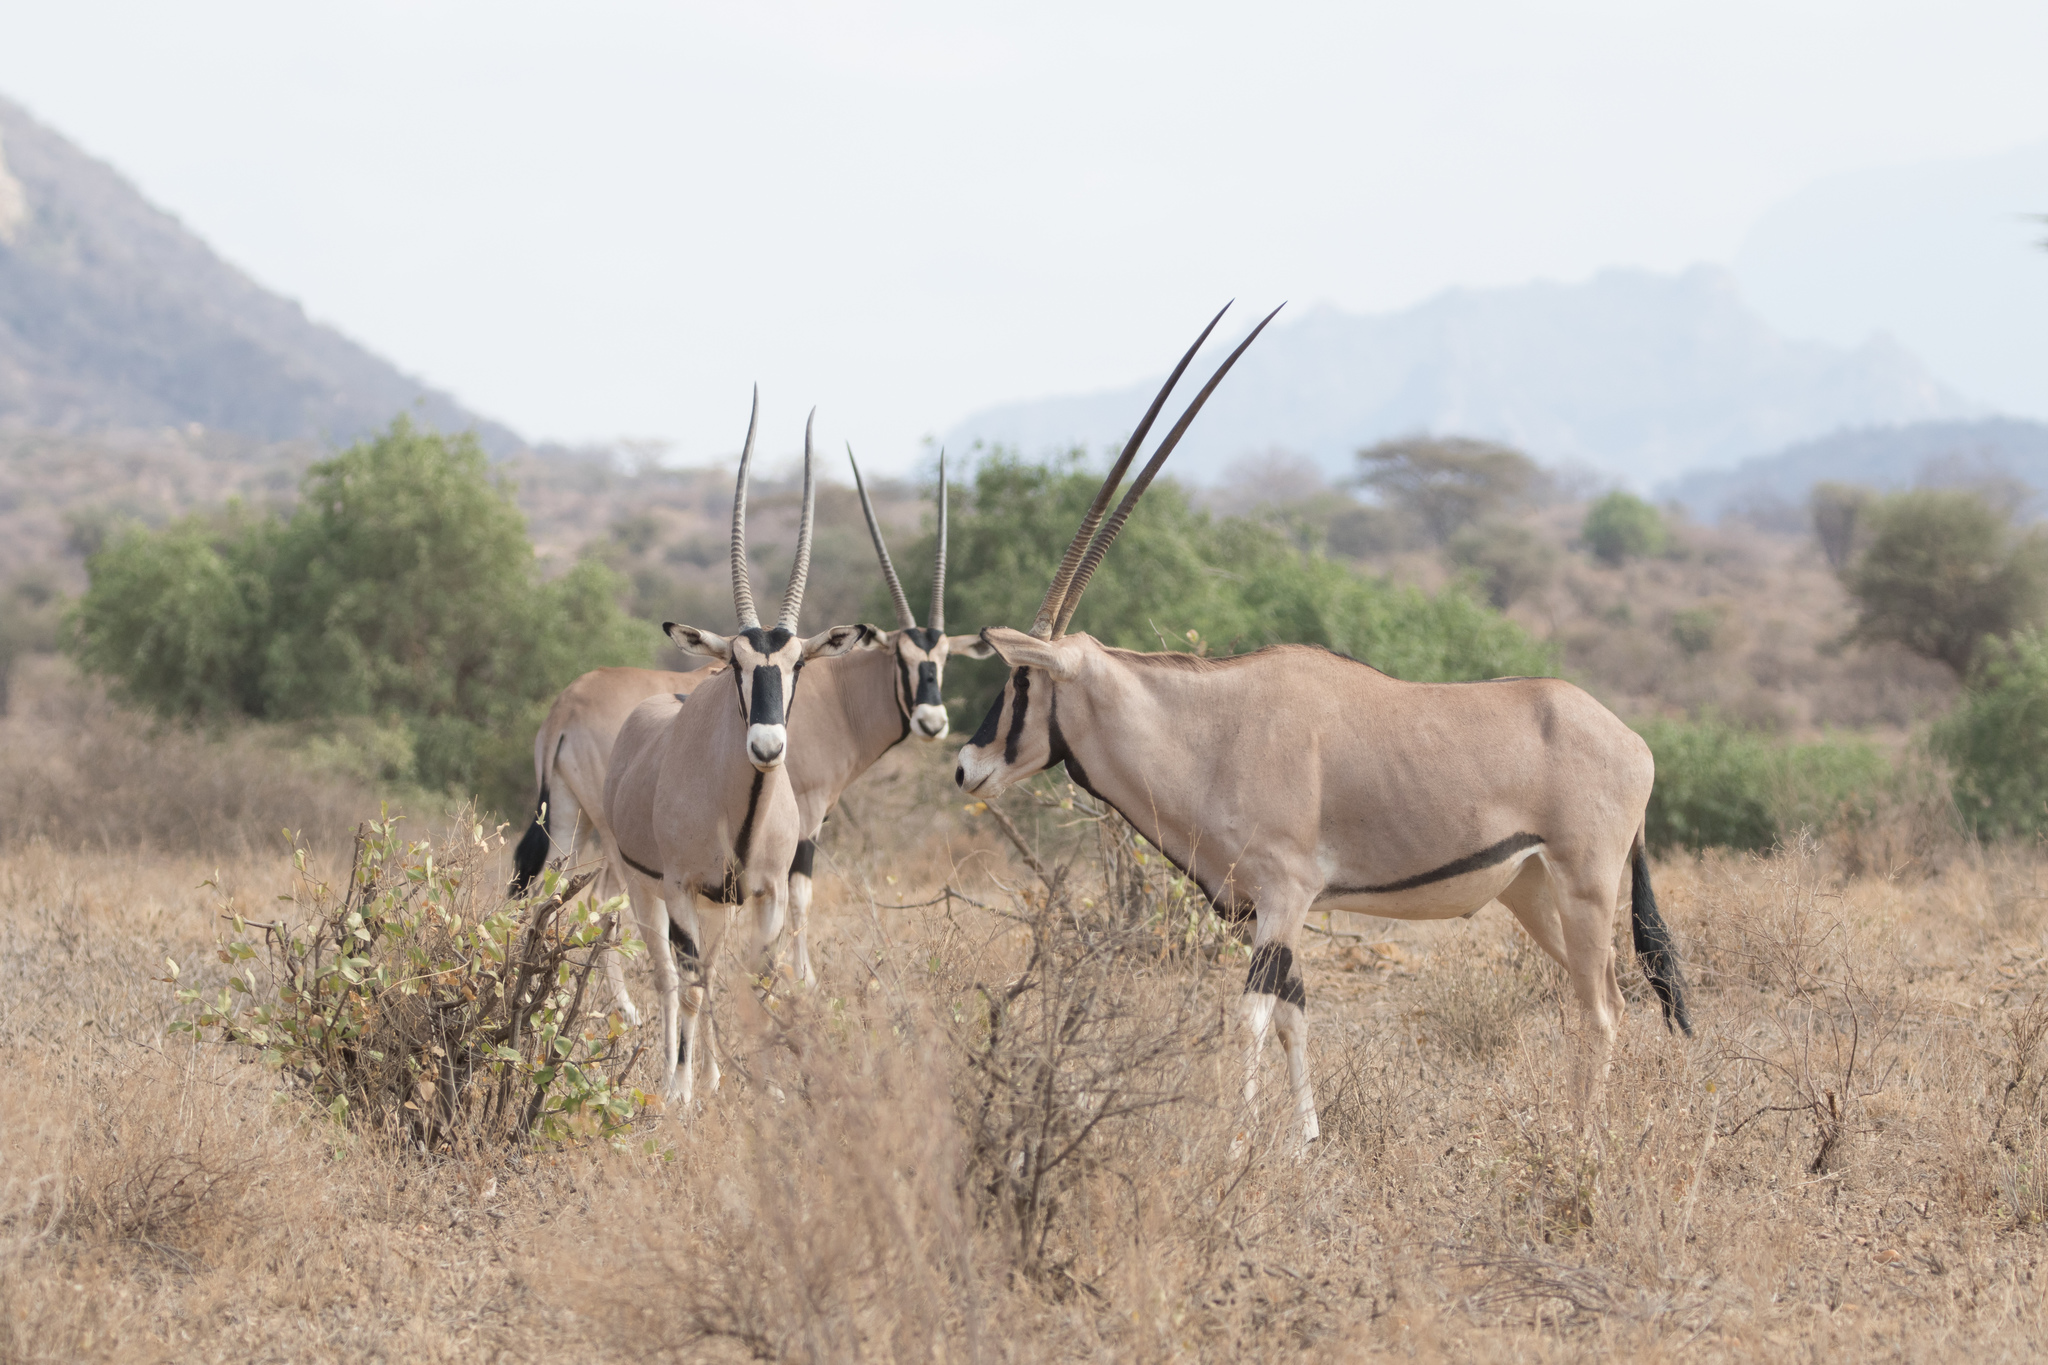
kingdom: Animalia
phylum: Chordata
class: Mammalia
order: Artiodactyla
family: Bovidae
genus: Oryx
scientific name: Oryx beisa
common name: Beisa
